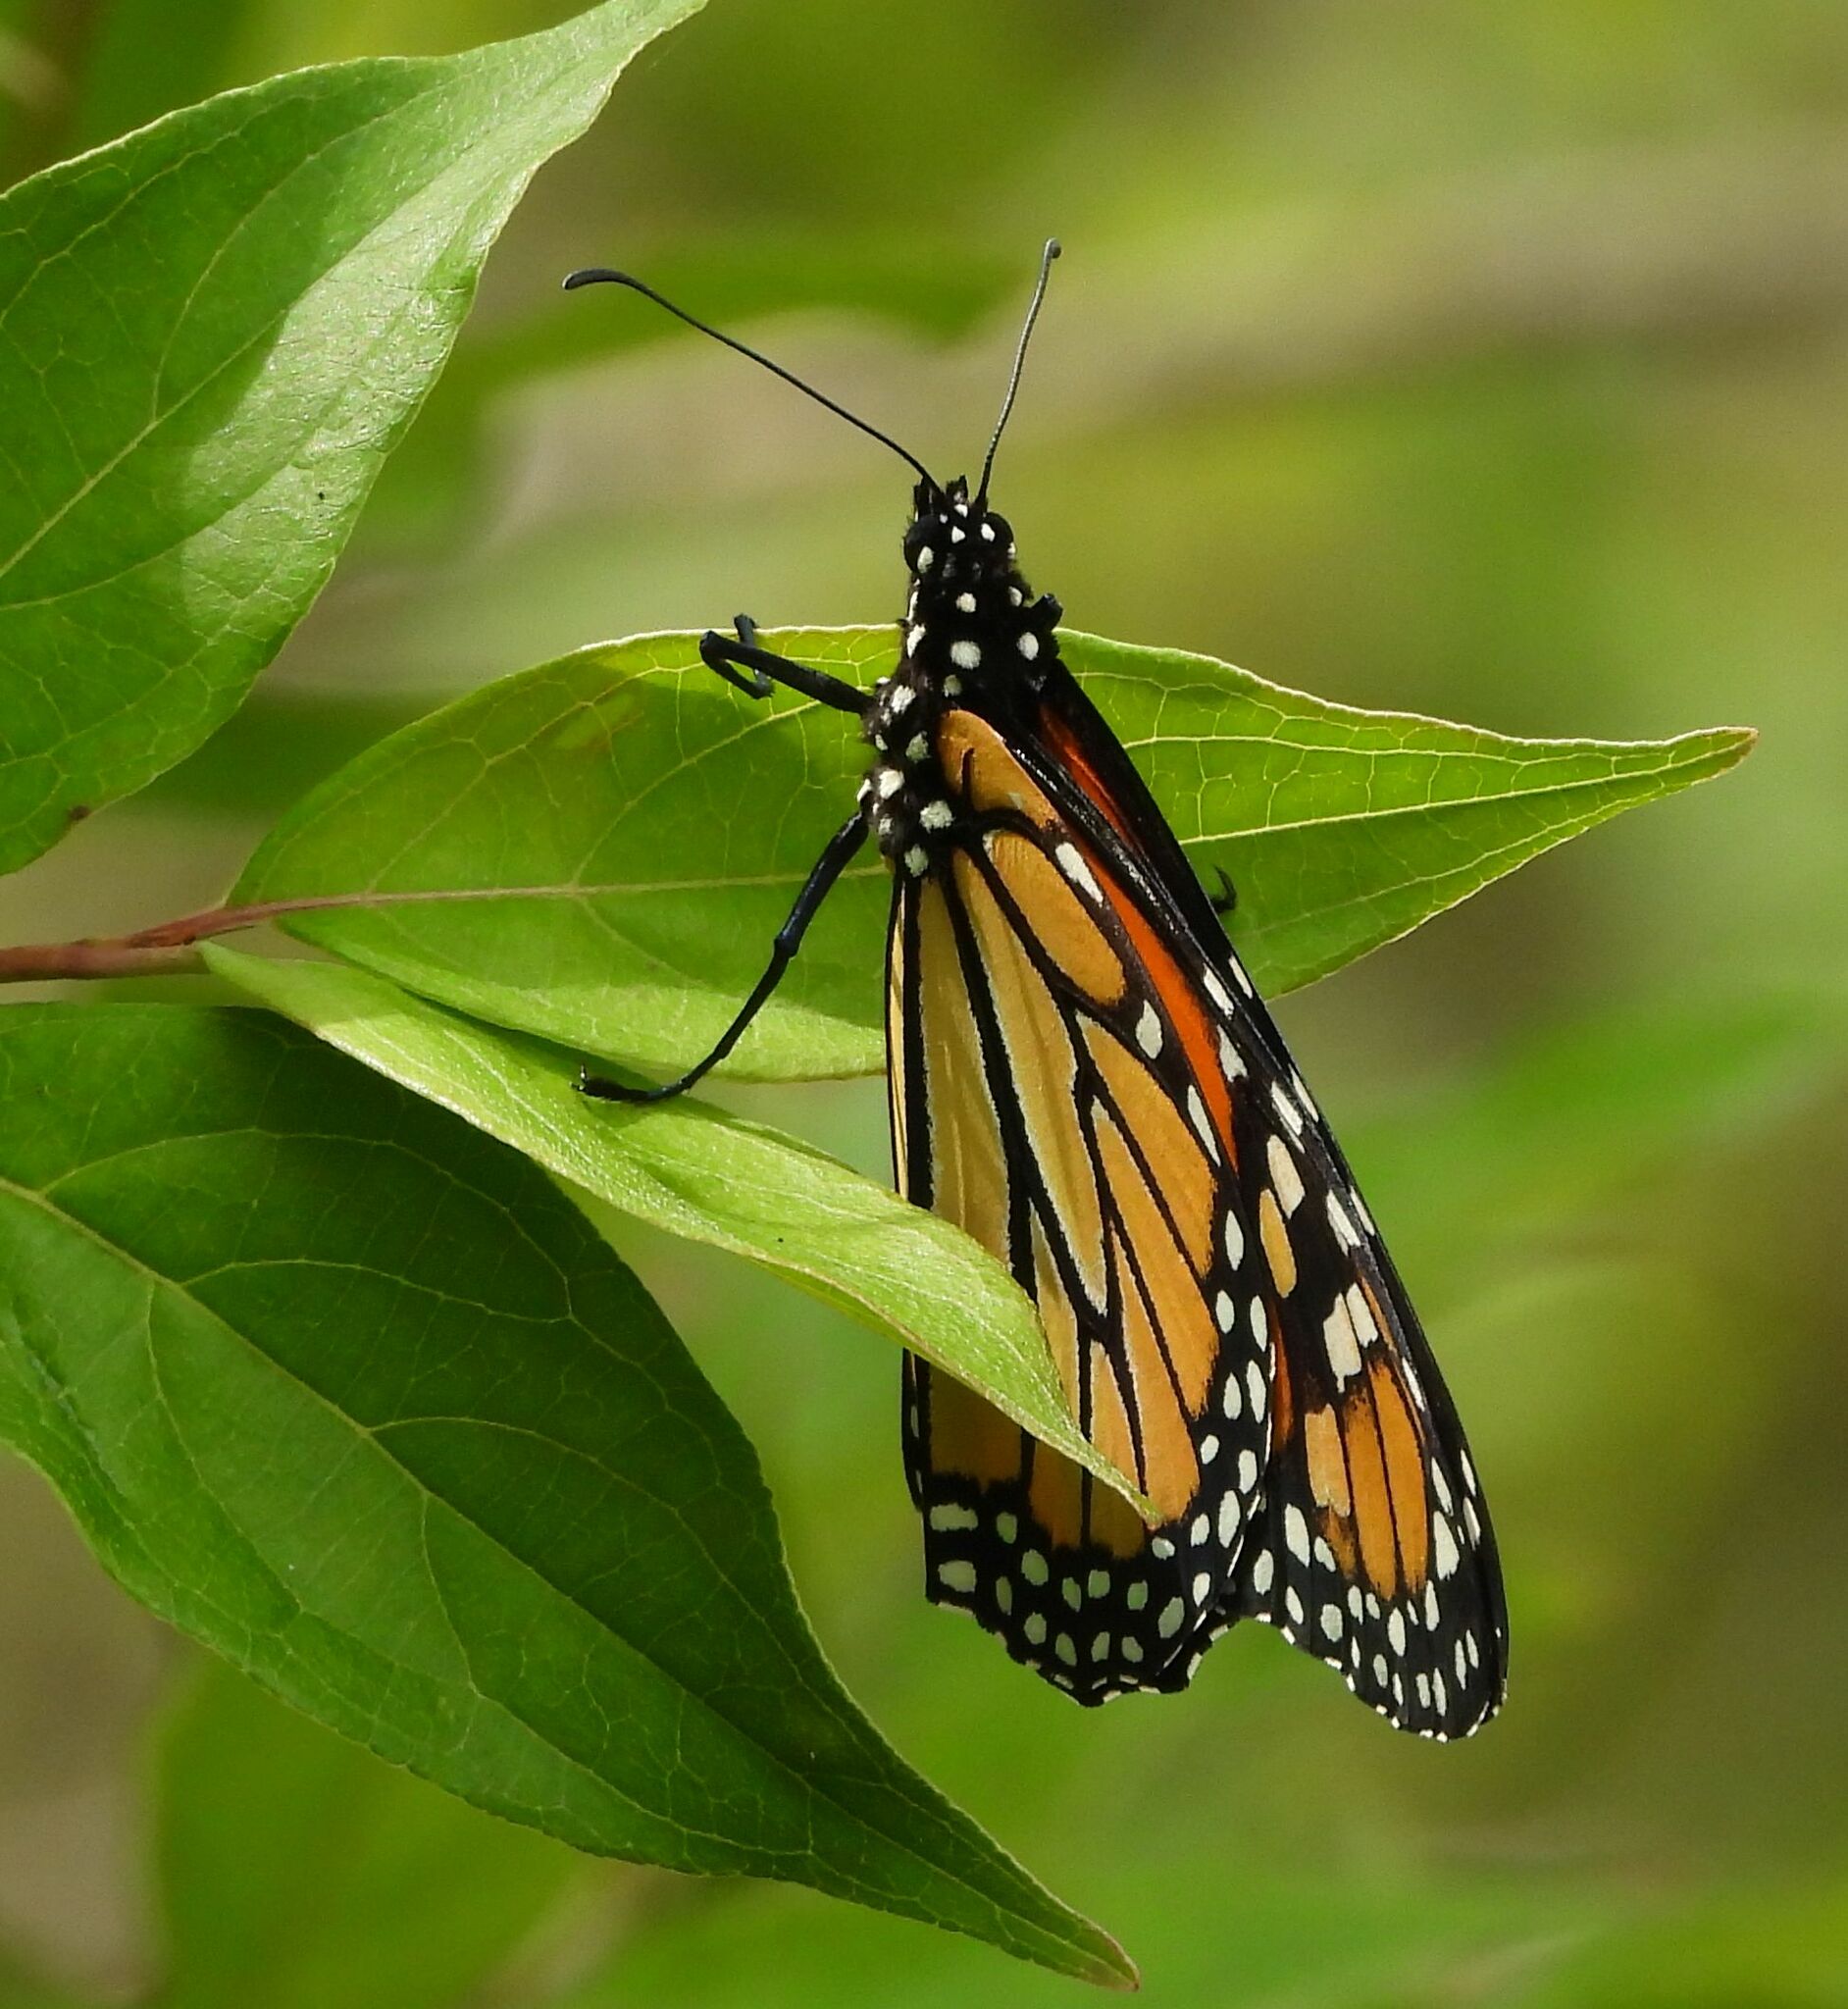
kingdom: Animalia
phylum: Arthropoda
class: Insecta
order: Lepidoptera
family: Nymphalidae
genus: Danaus
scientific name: Danaus plexippus
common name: Monarch
